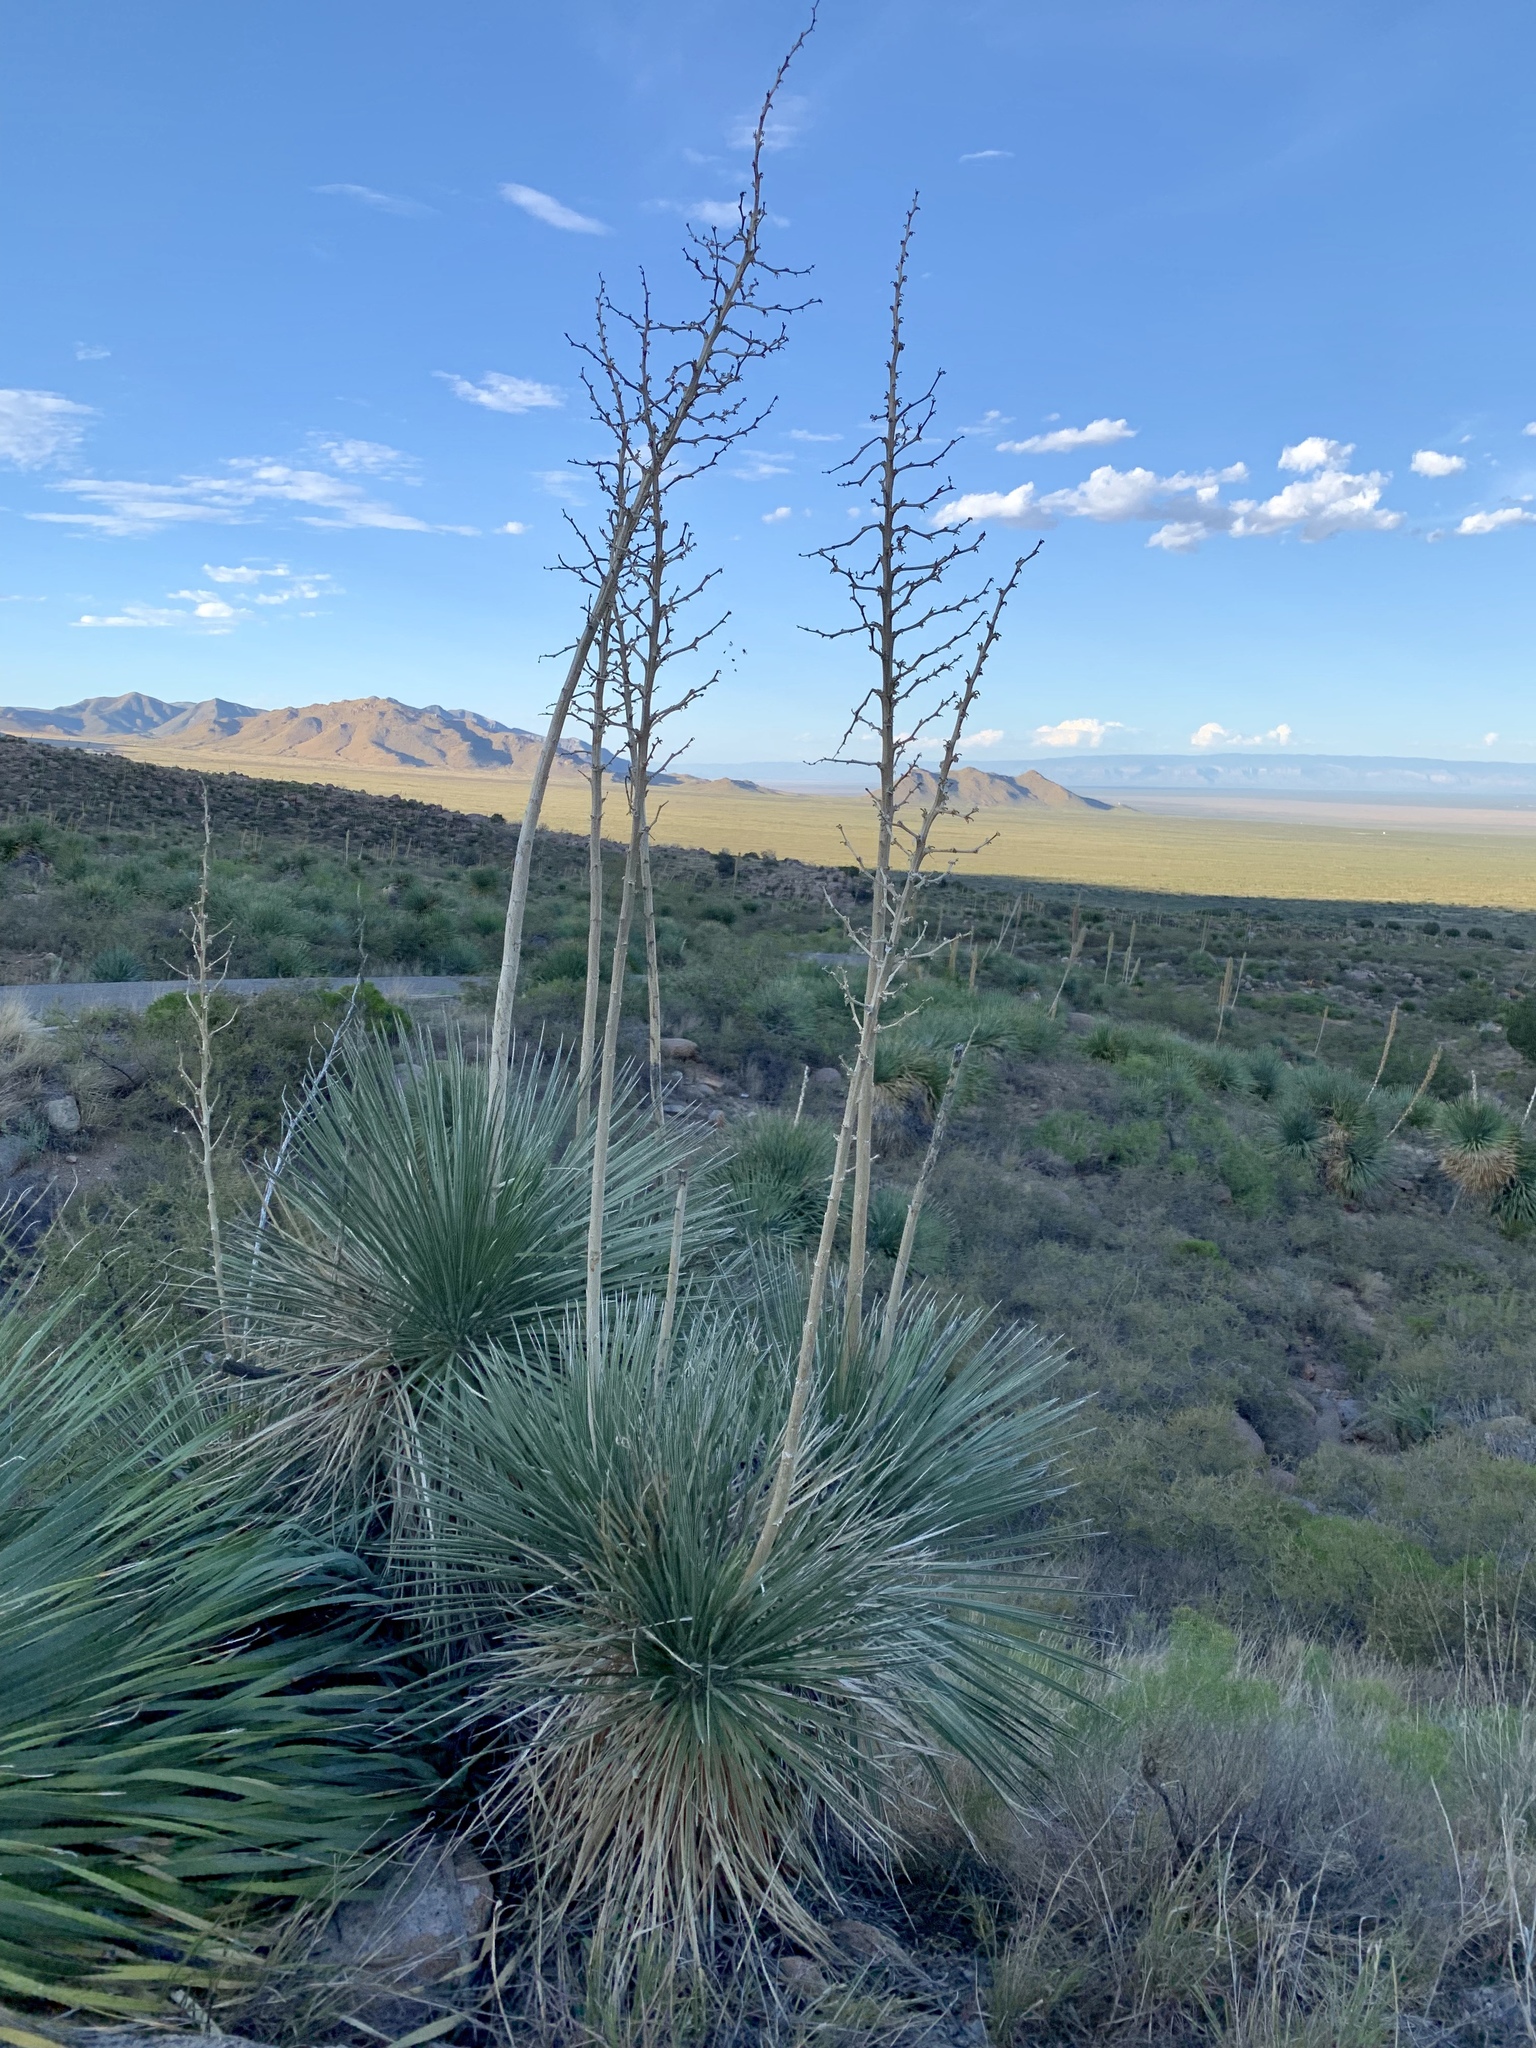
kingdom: Plantae
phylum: Tracheophyta
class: Liliopsida
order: Asparagales
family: Asparagaceae
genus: Yucca
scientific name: Yucca elata
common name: Palmella
